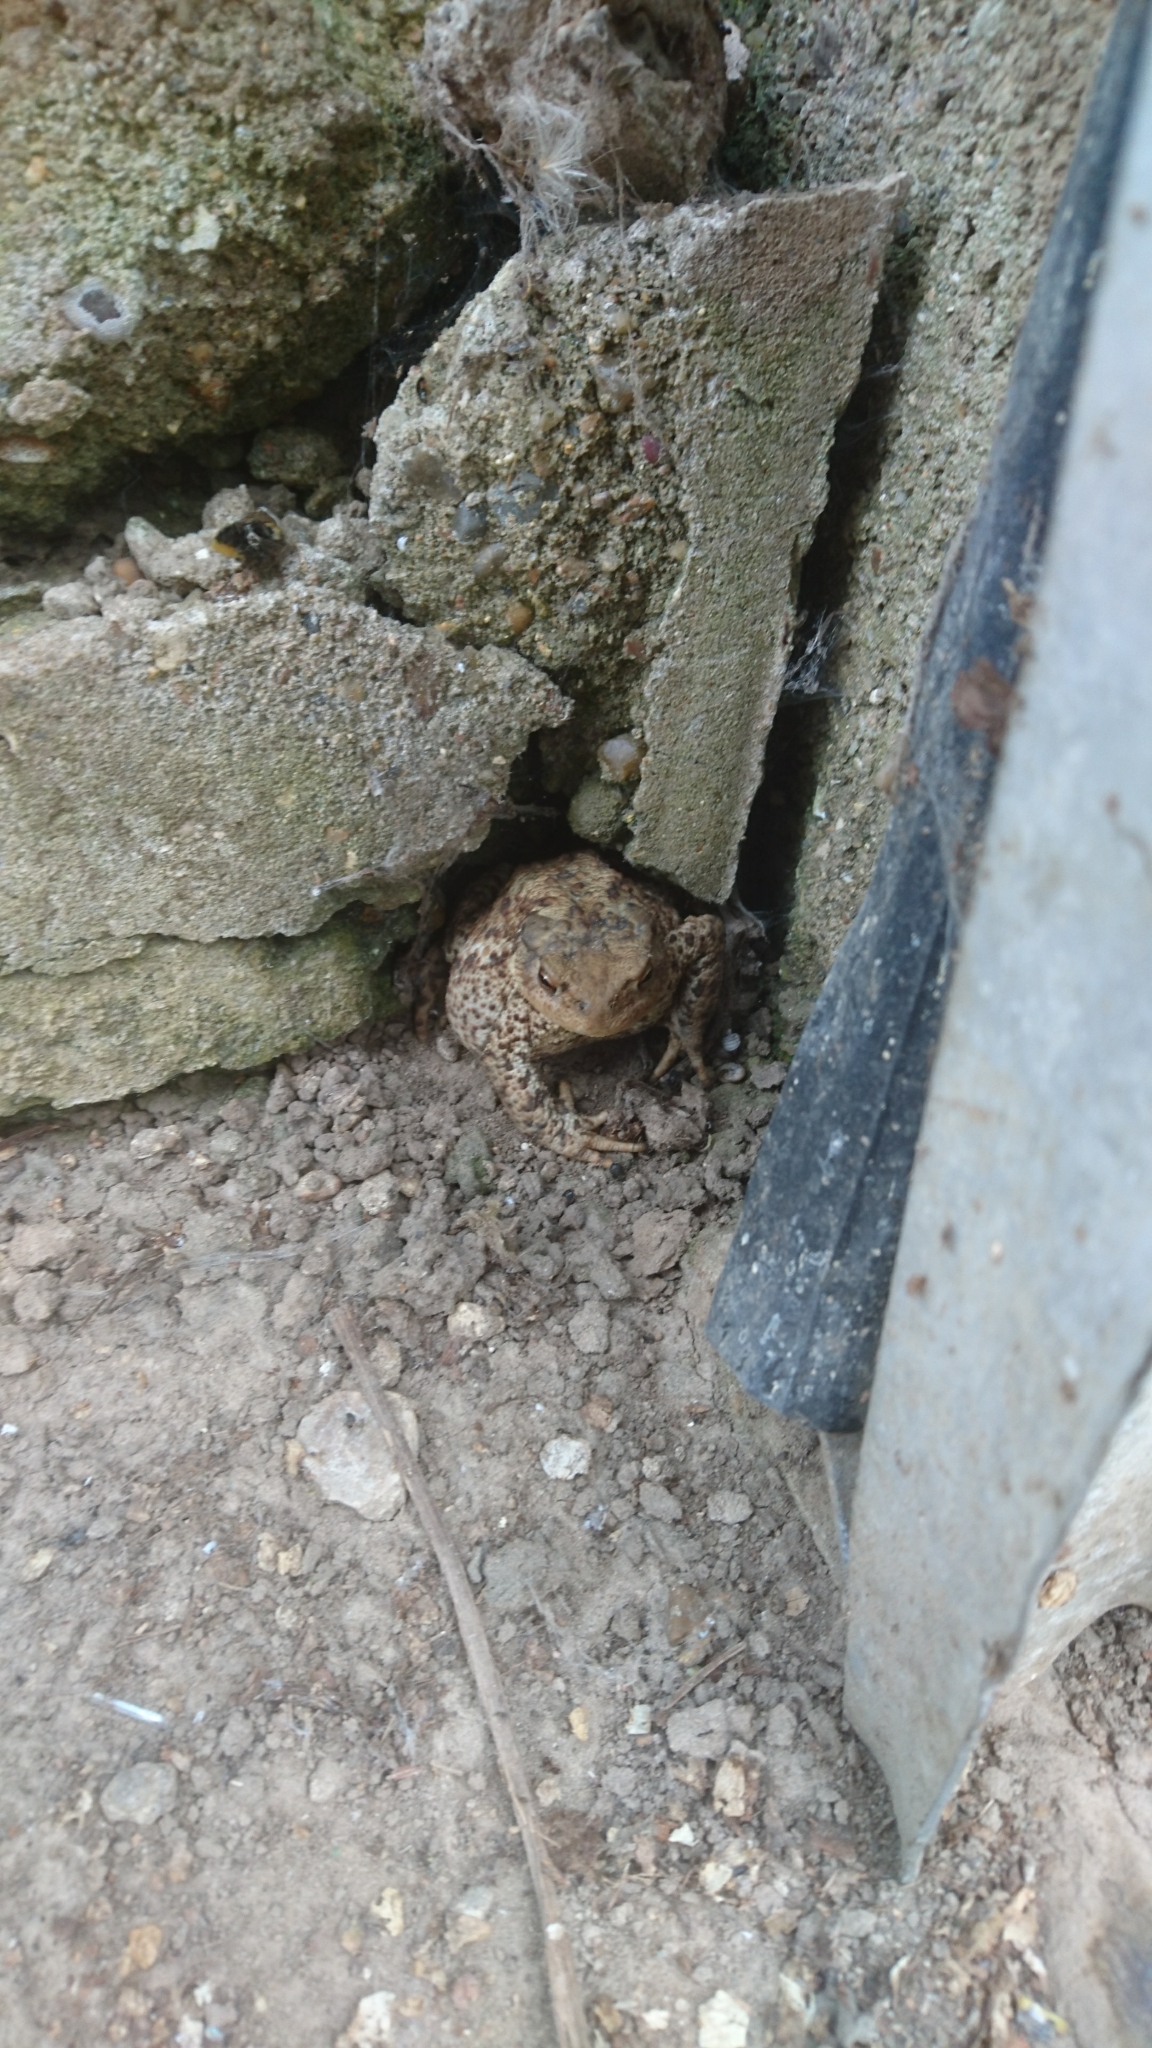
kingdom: Animalia
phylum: Chordata
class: Amphibia
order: Anura
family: Bufonidae
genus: Bufo
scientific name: Bufo bufo
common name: Common toad
